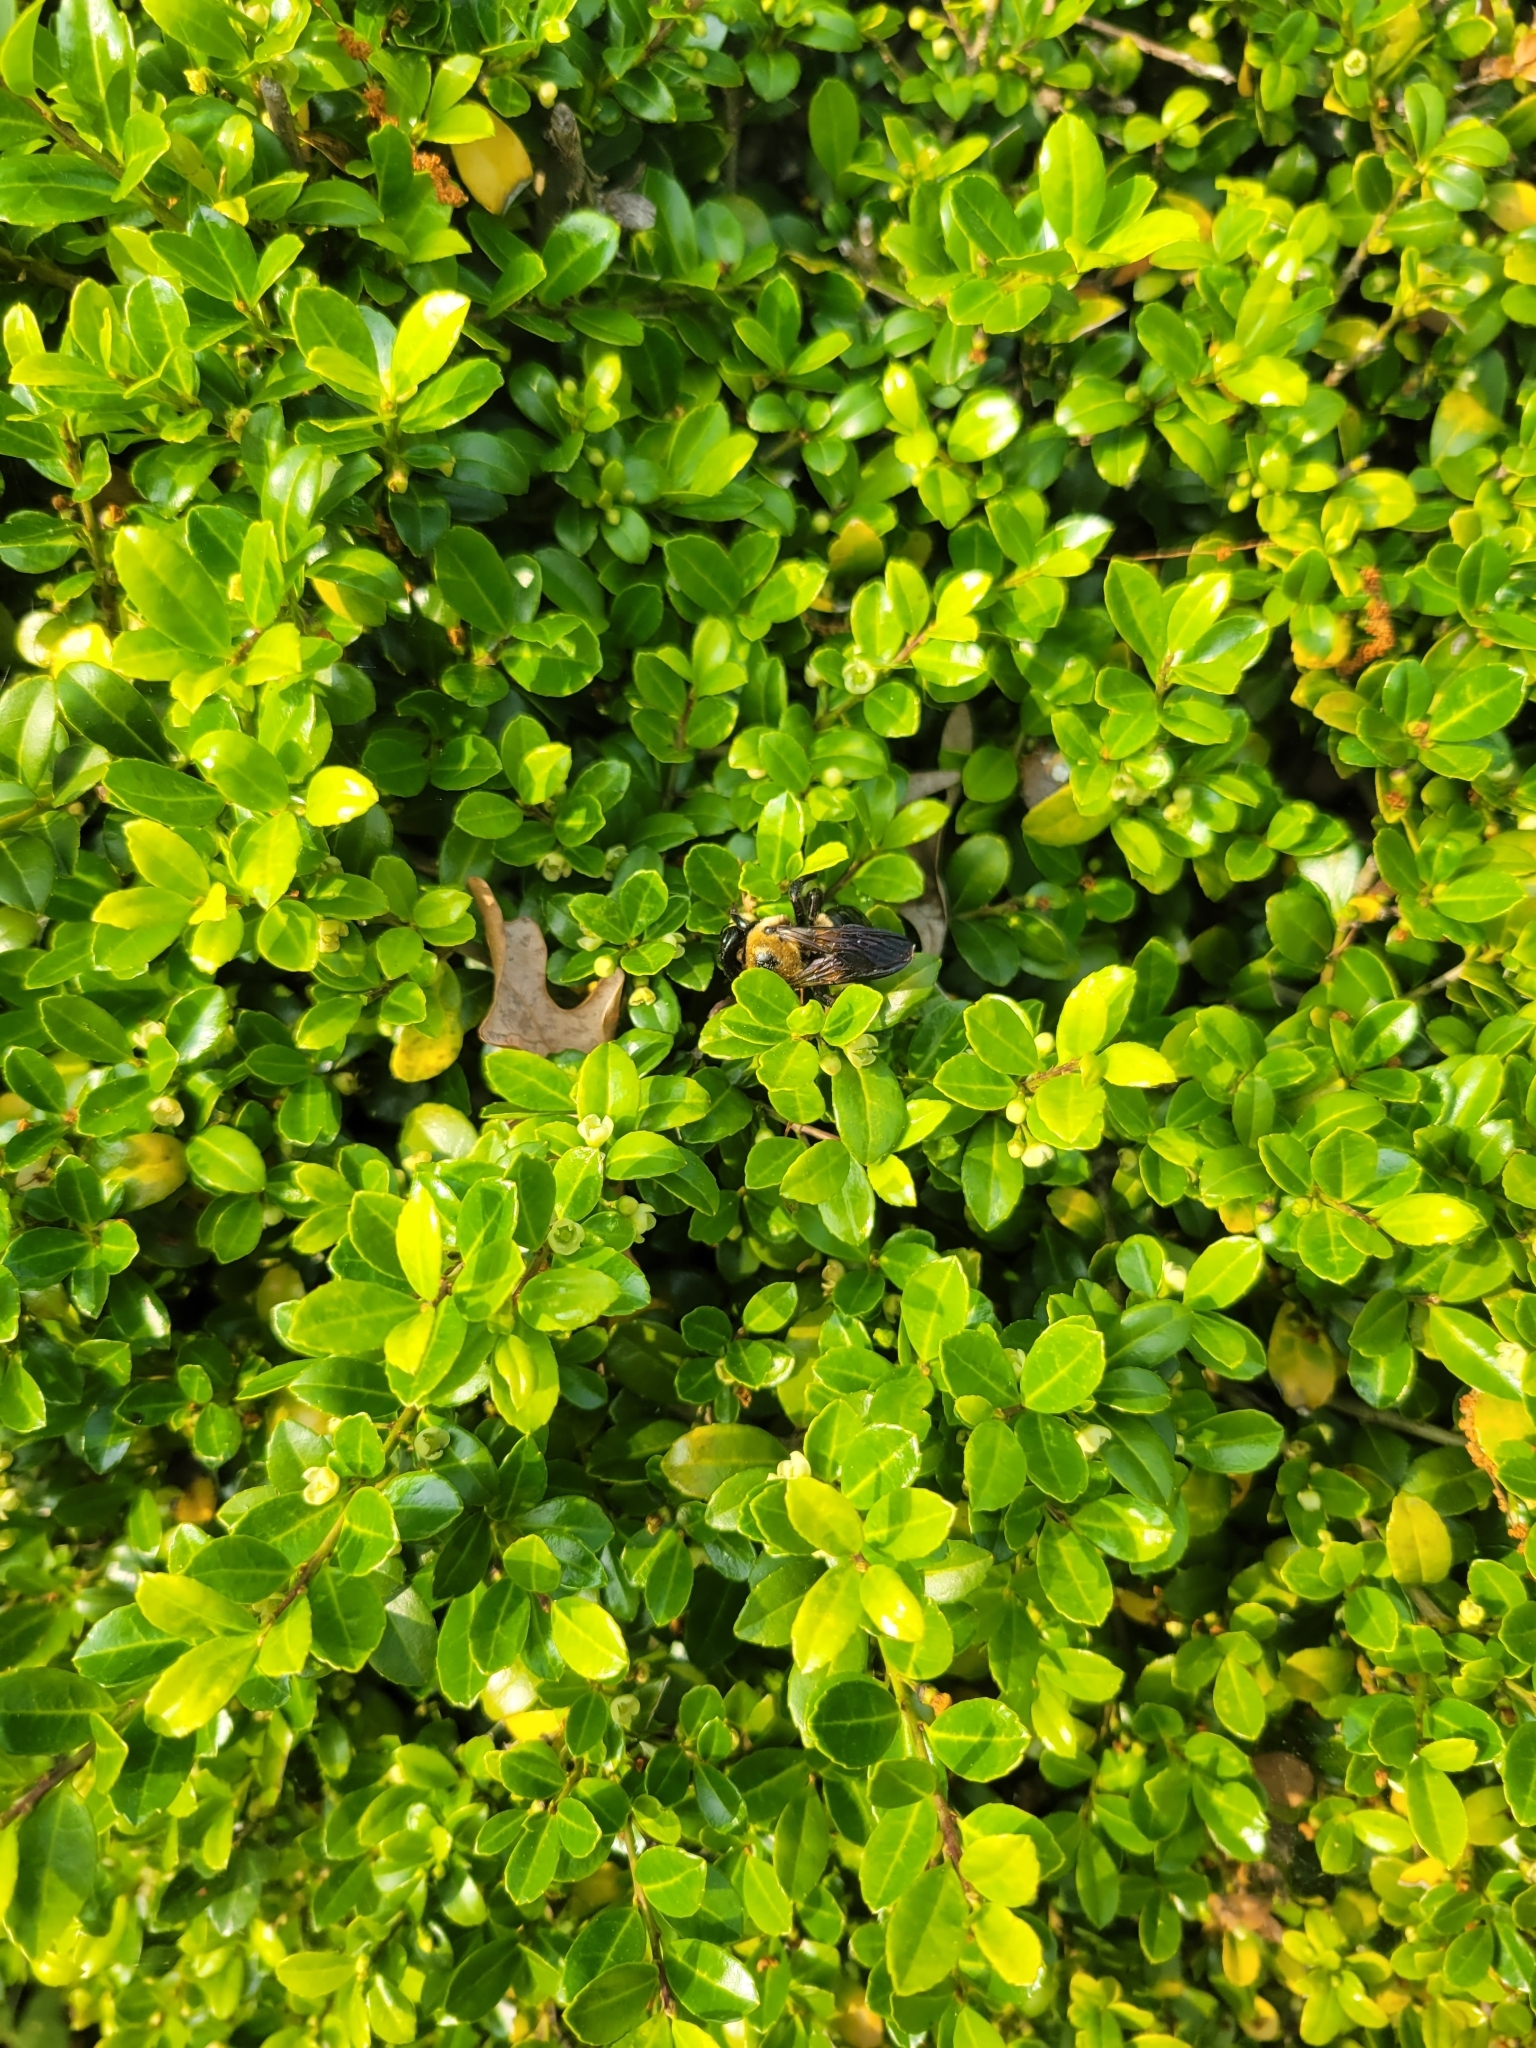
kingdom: Animalia
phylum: Arthropoda
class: Insecta
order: Hymenoptera
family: Apidae
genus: Xylocopa
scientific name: Xylocopa virginica
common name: Carpenter bee
